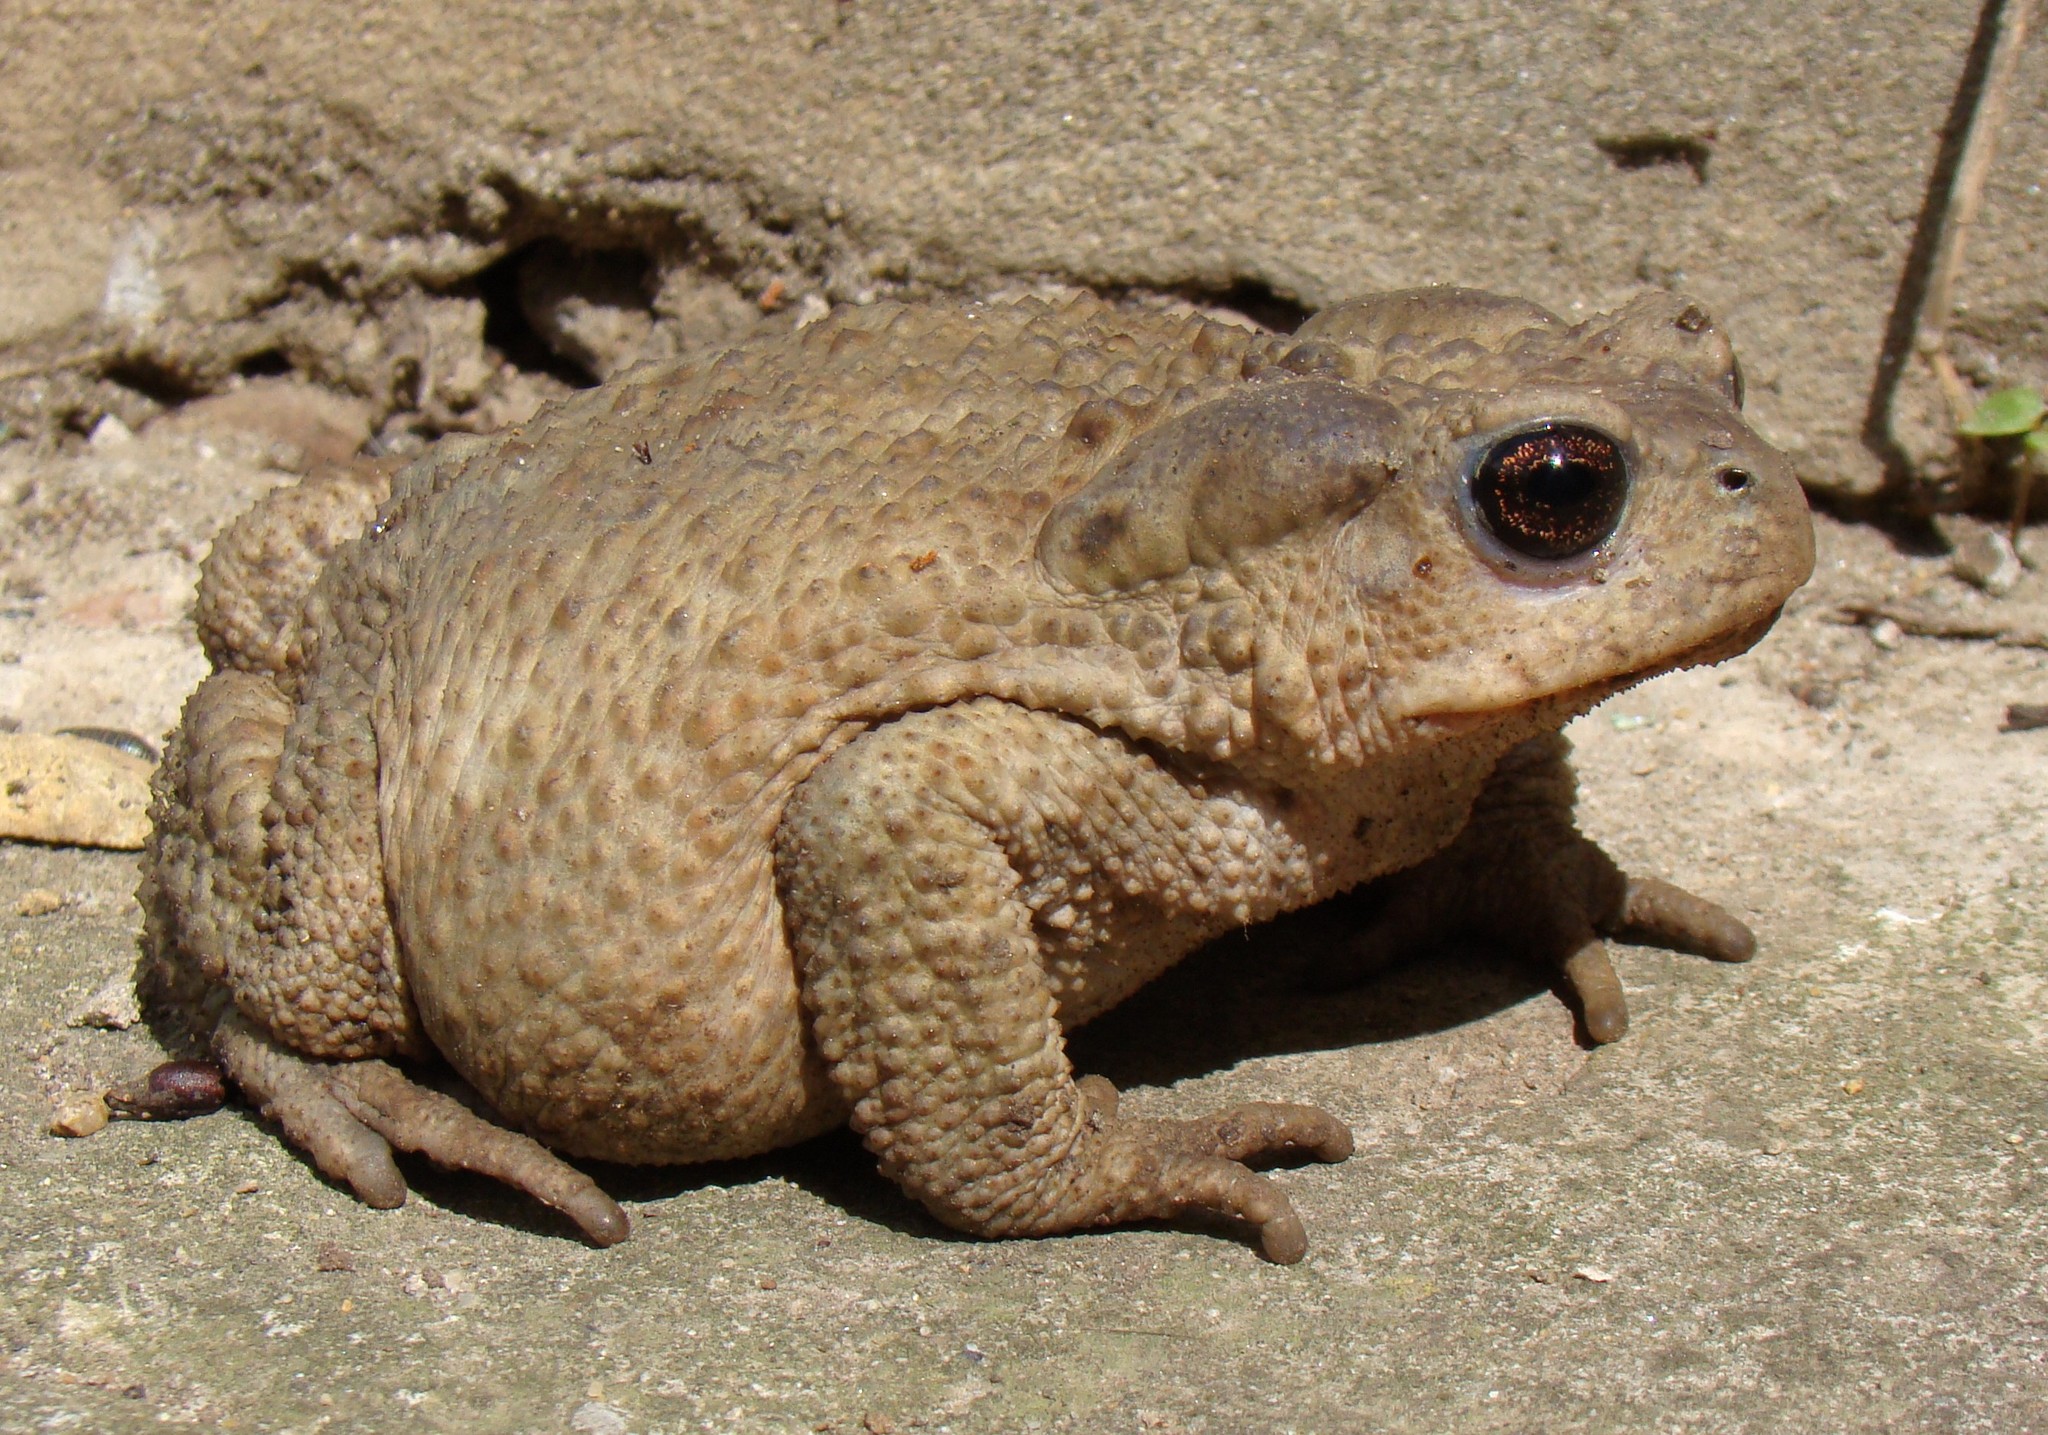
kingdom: Animalia
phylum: Chordata
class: Amphibia
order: Anura
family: Bufonidae
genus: Bufo
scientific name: Bufo verrucosissimus
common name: Caucasian toad
